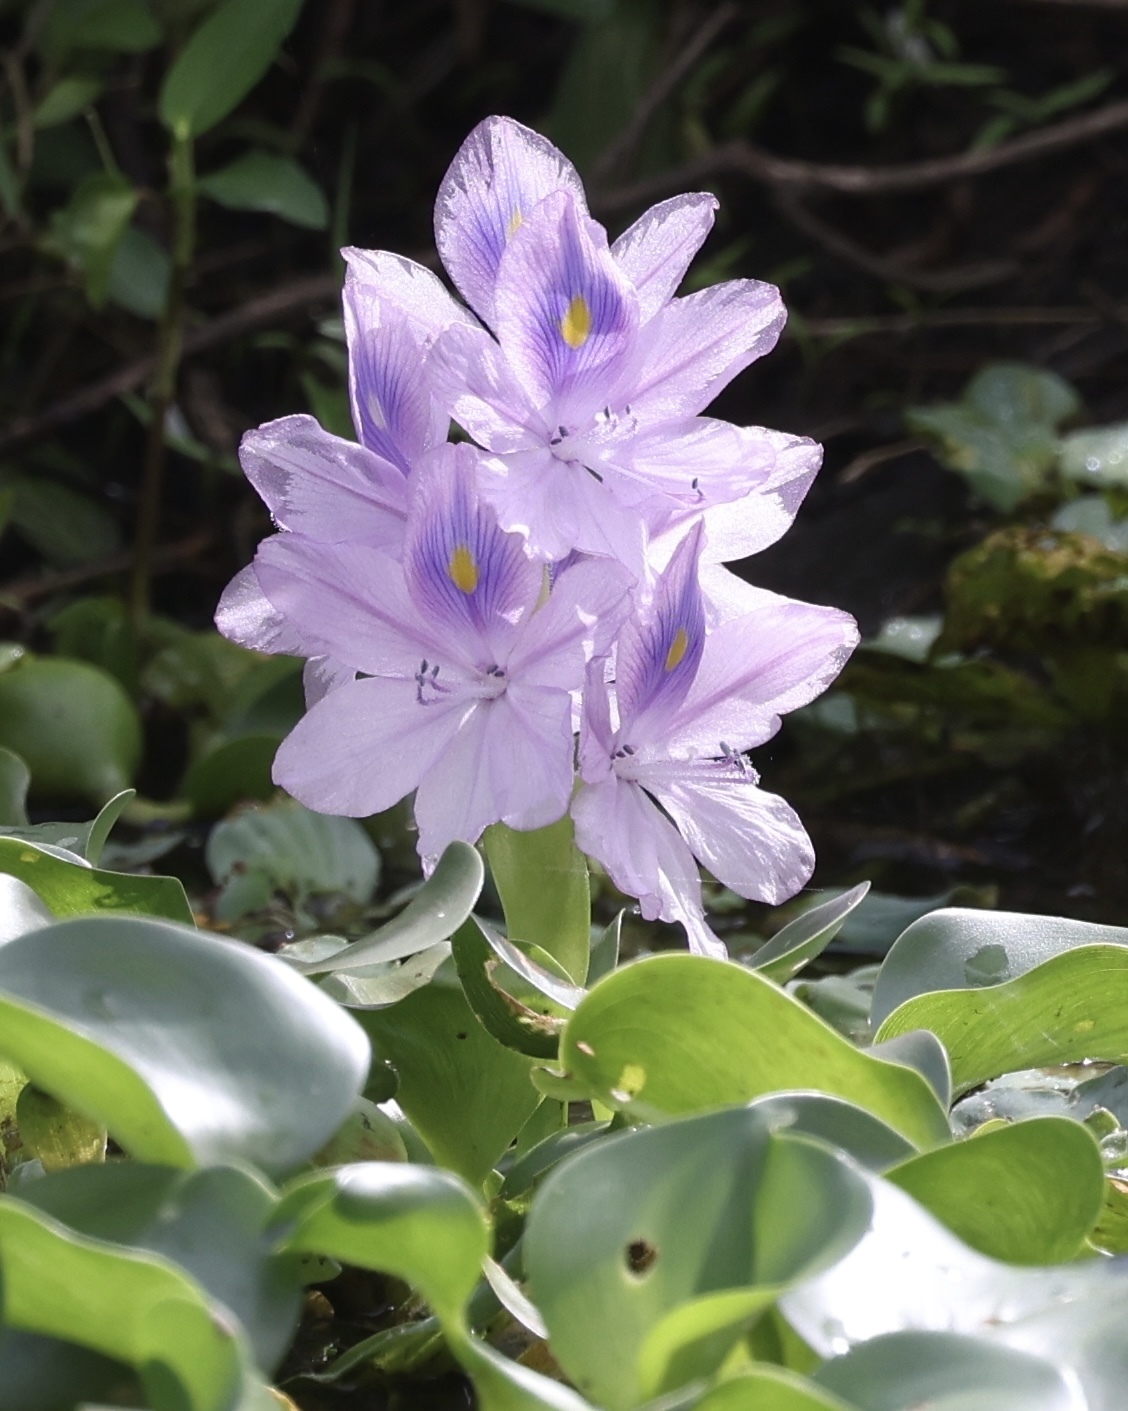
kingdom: Plantae
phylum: Tracheophyta
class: Liliopsida
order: Commelinales
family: Pontederiaceae
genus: Pontederia
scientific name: Pontederia crassipes
